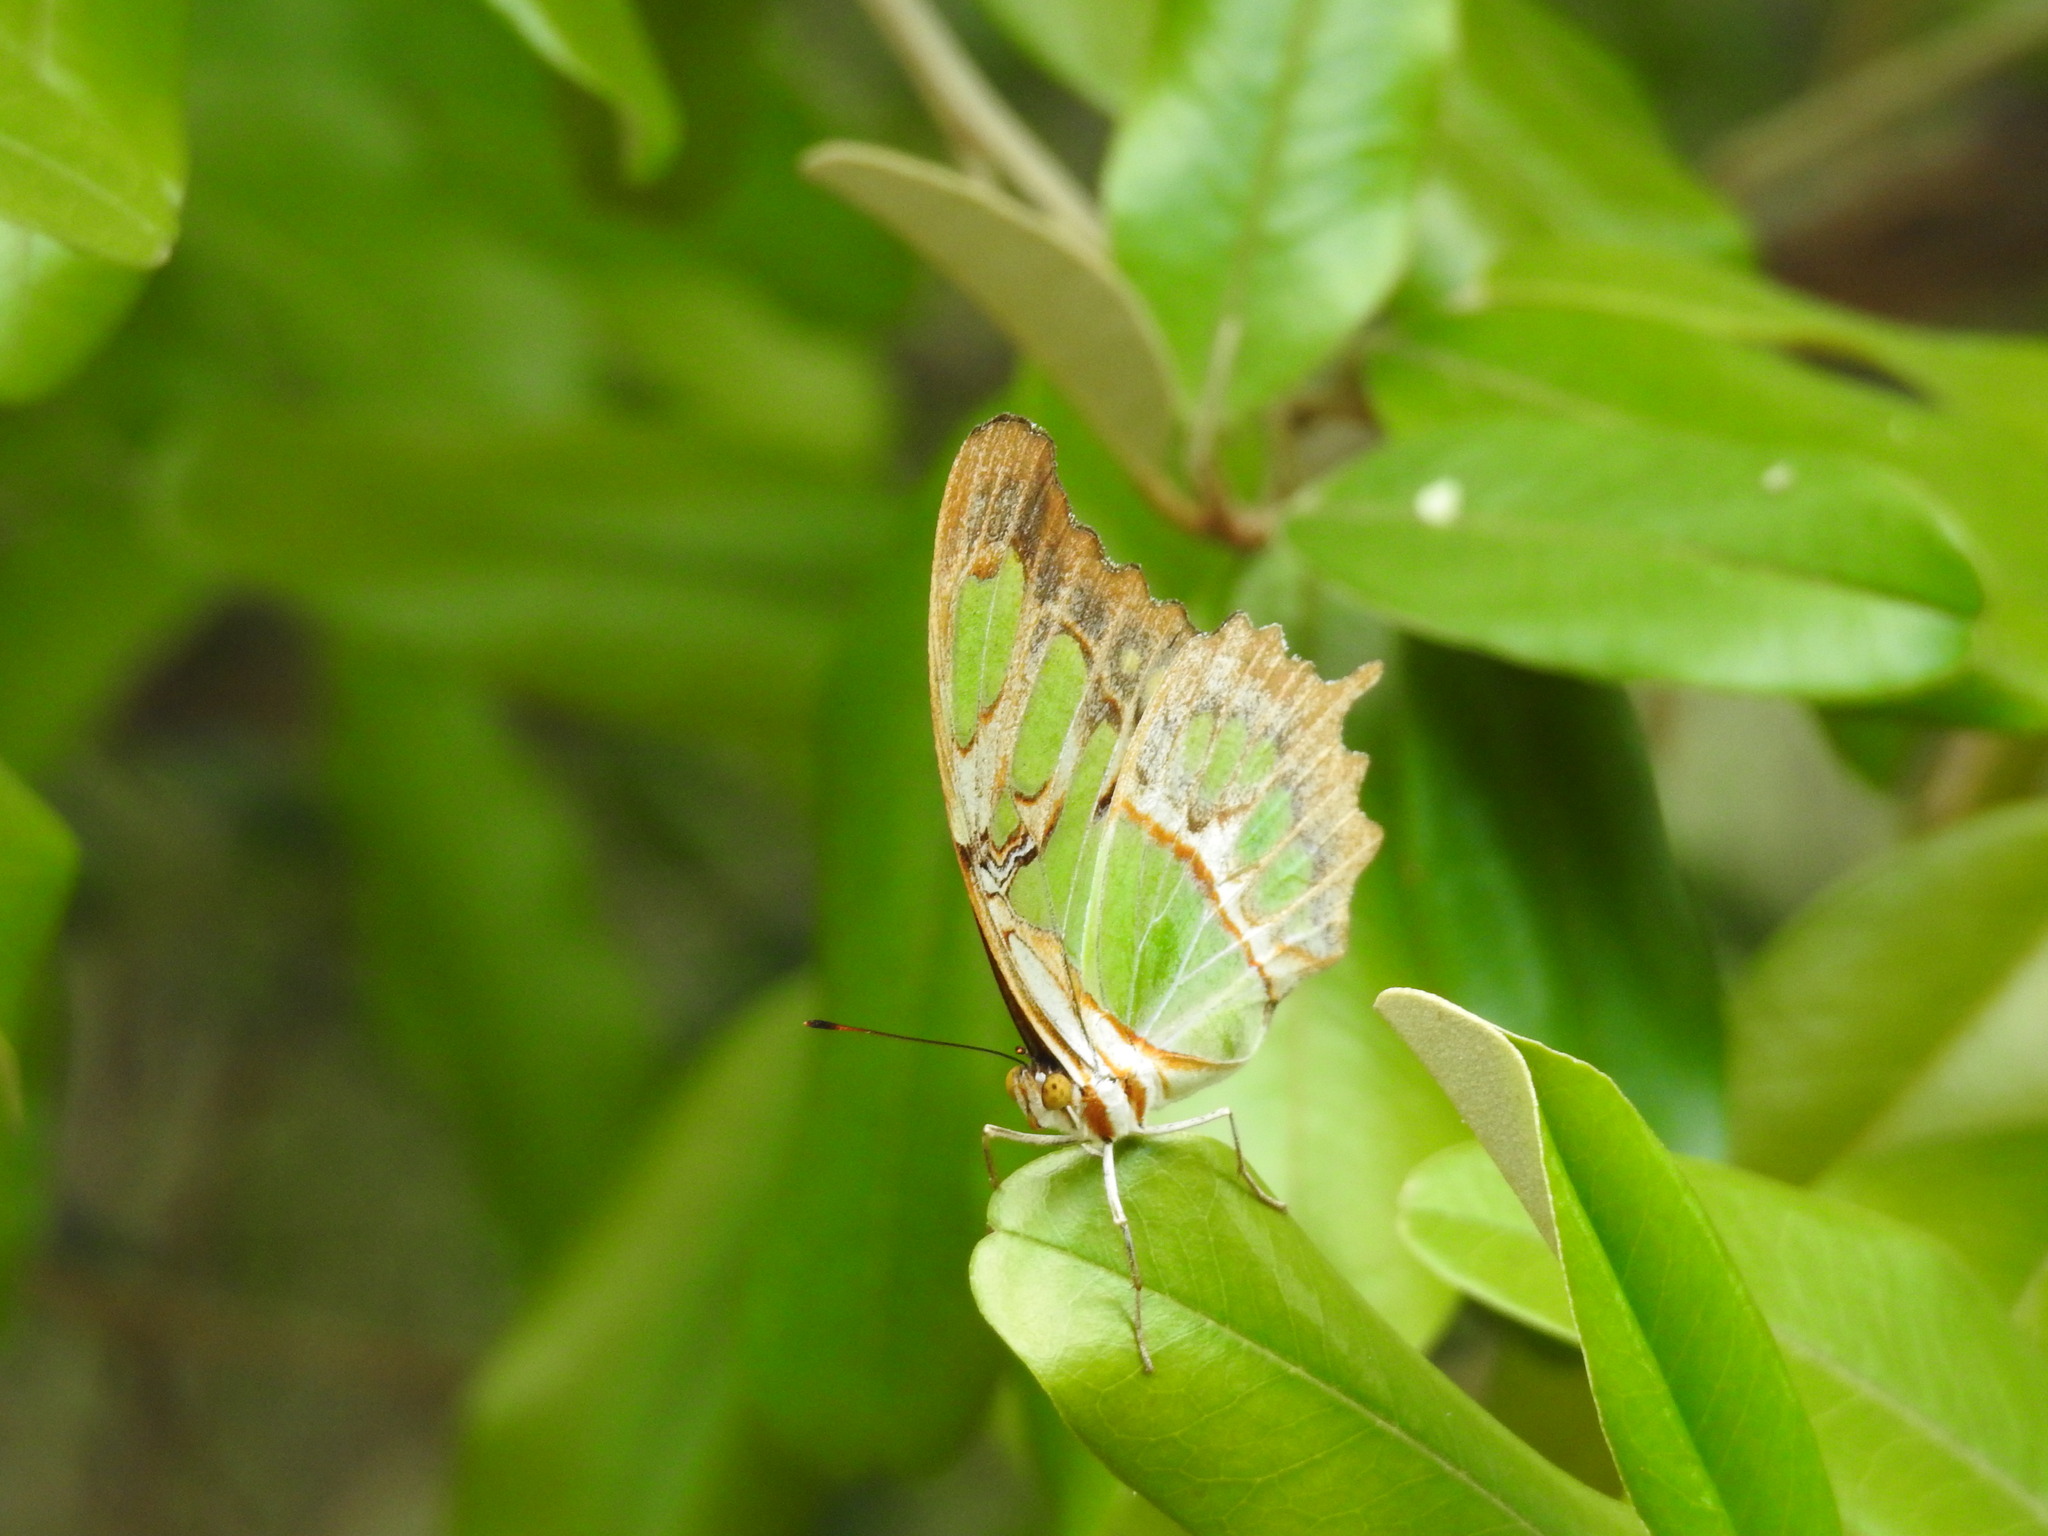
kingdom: Animalia
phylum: Arthropoda
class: Insecta
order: Lepidoptera
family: Nymphalidae
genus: Siproeta
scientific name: Siproeta stelenes
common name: Malachite
